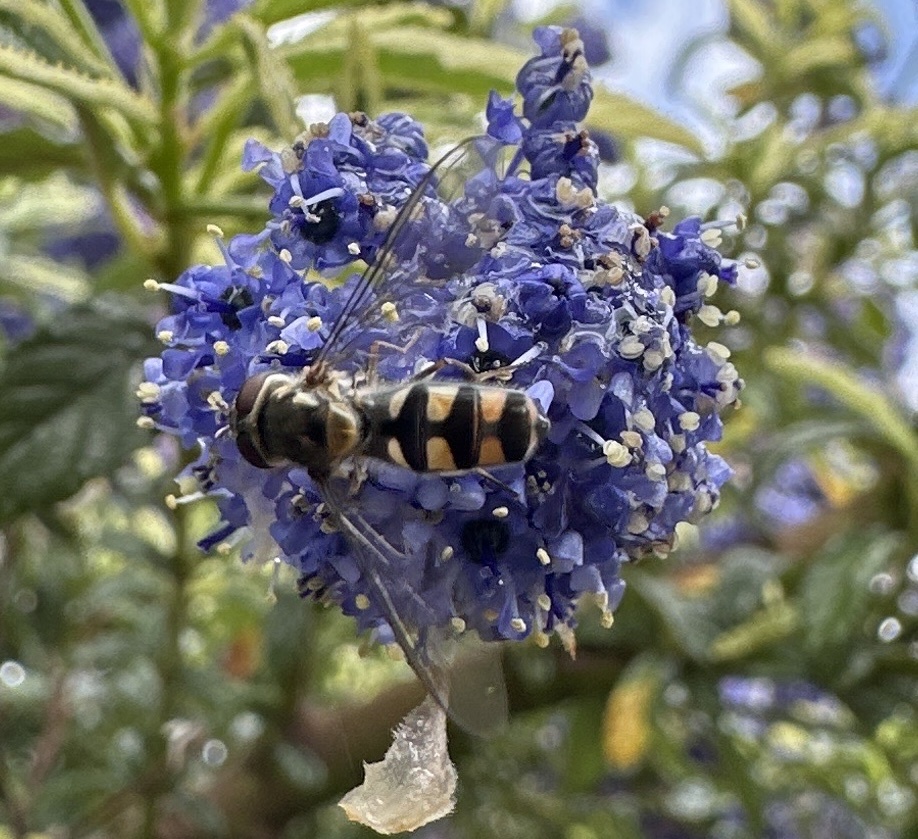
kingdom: Animalia
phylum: Arthropoda
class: Insecta
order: Diptera
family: Syrphidae
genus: Meliscaeva
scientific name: Meliscaeva auricollis
